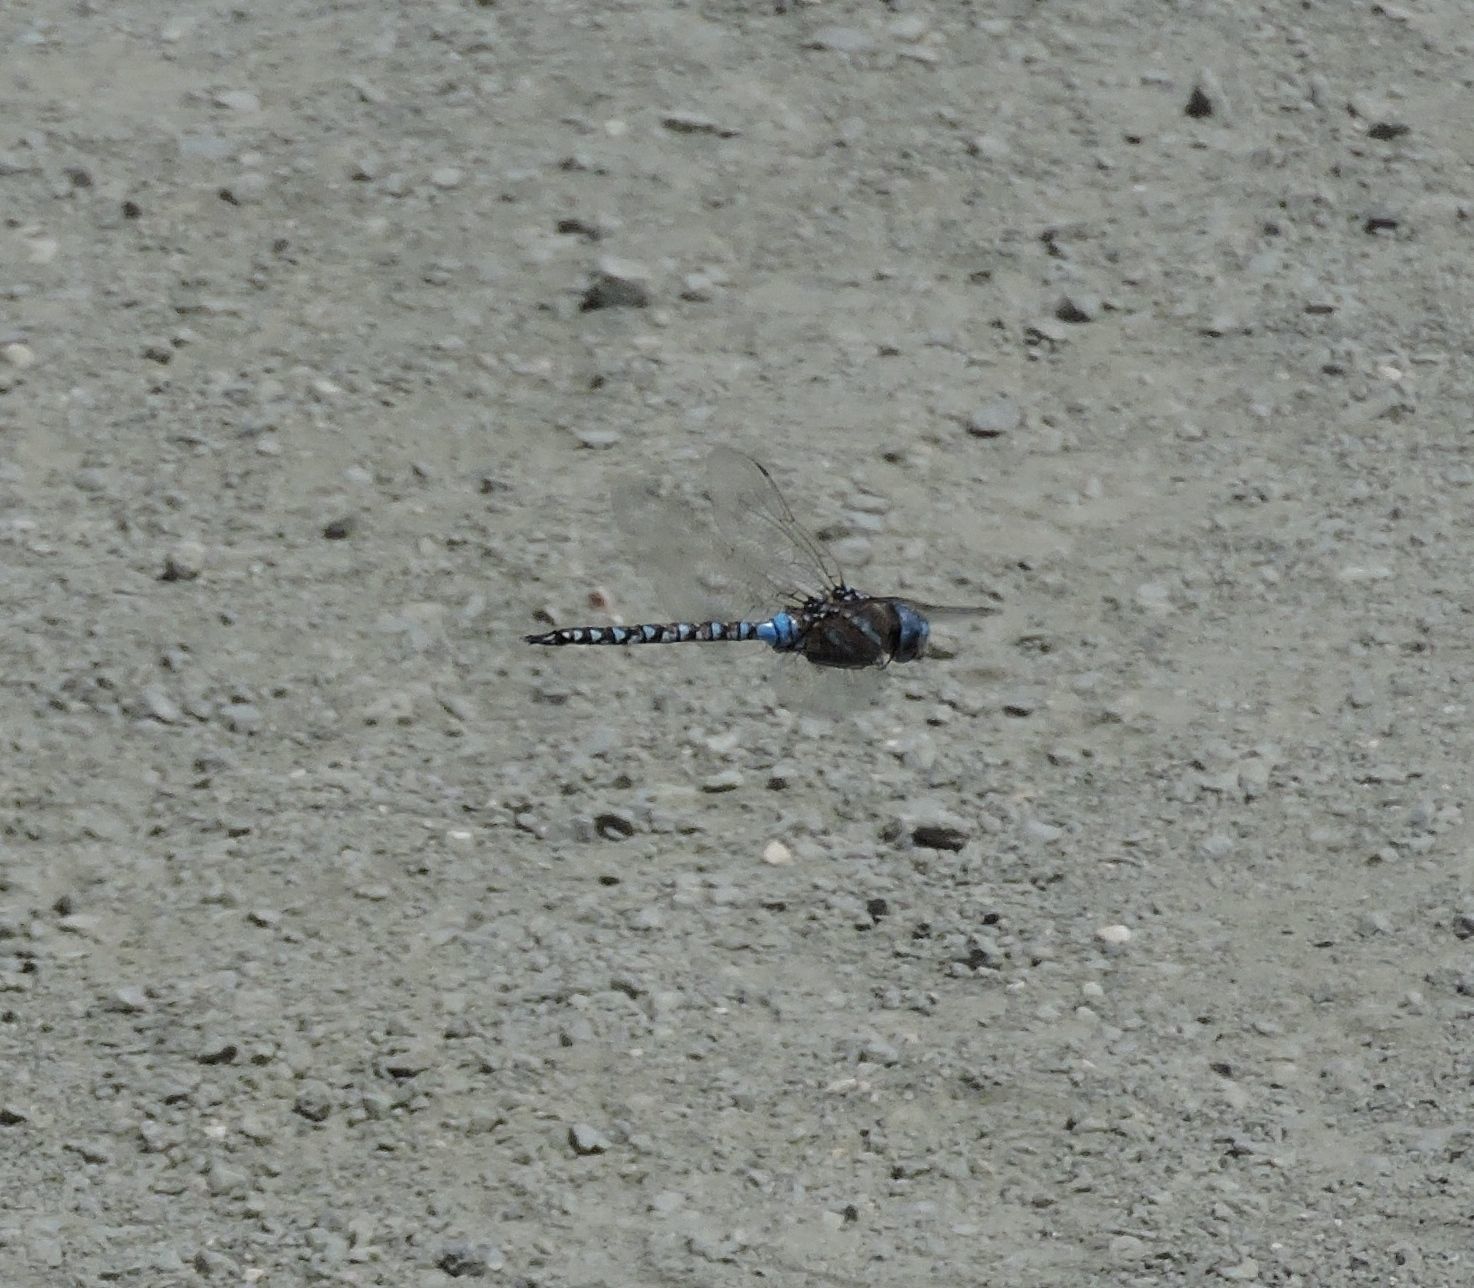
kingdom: Animalia
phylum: Arthropoda
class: Insecta
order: Odonata
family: Aeshnidae
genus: Rhionaeschna
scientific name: Rhionaeschna multicolor
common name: Blue-eyed darner
